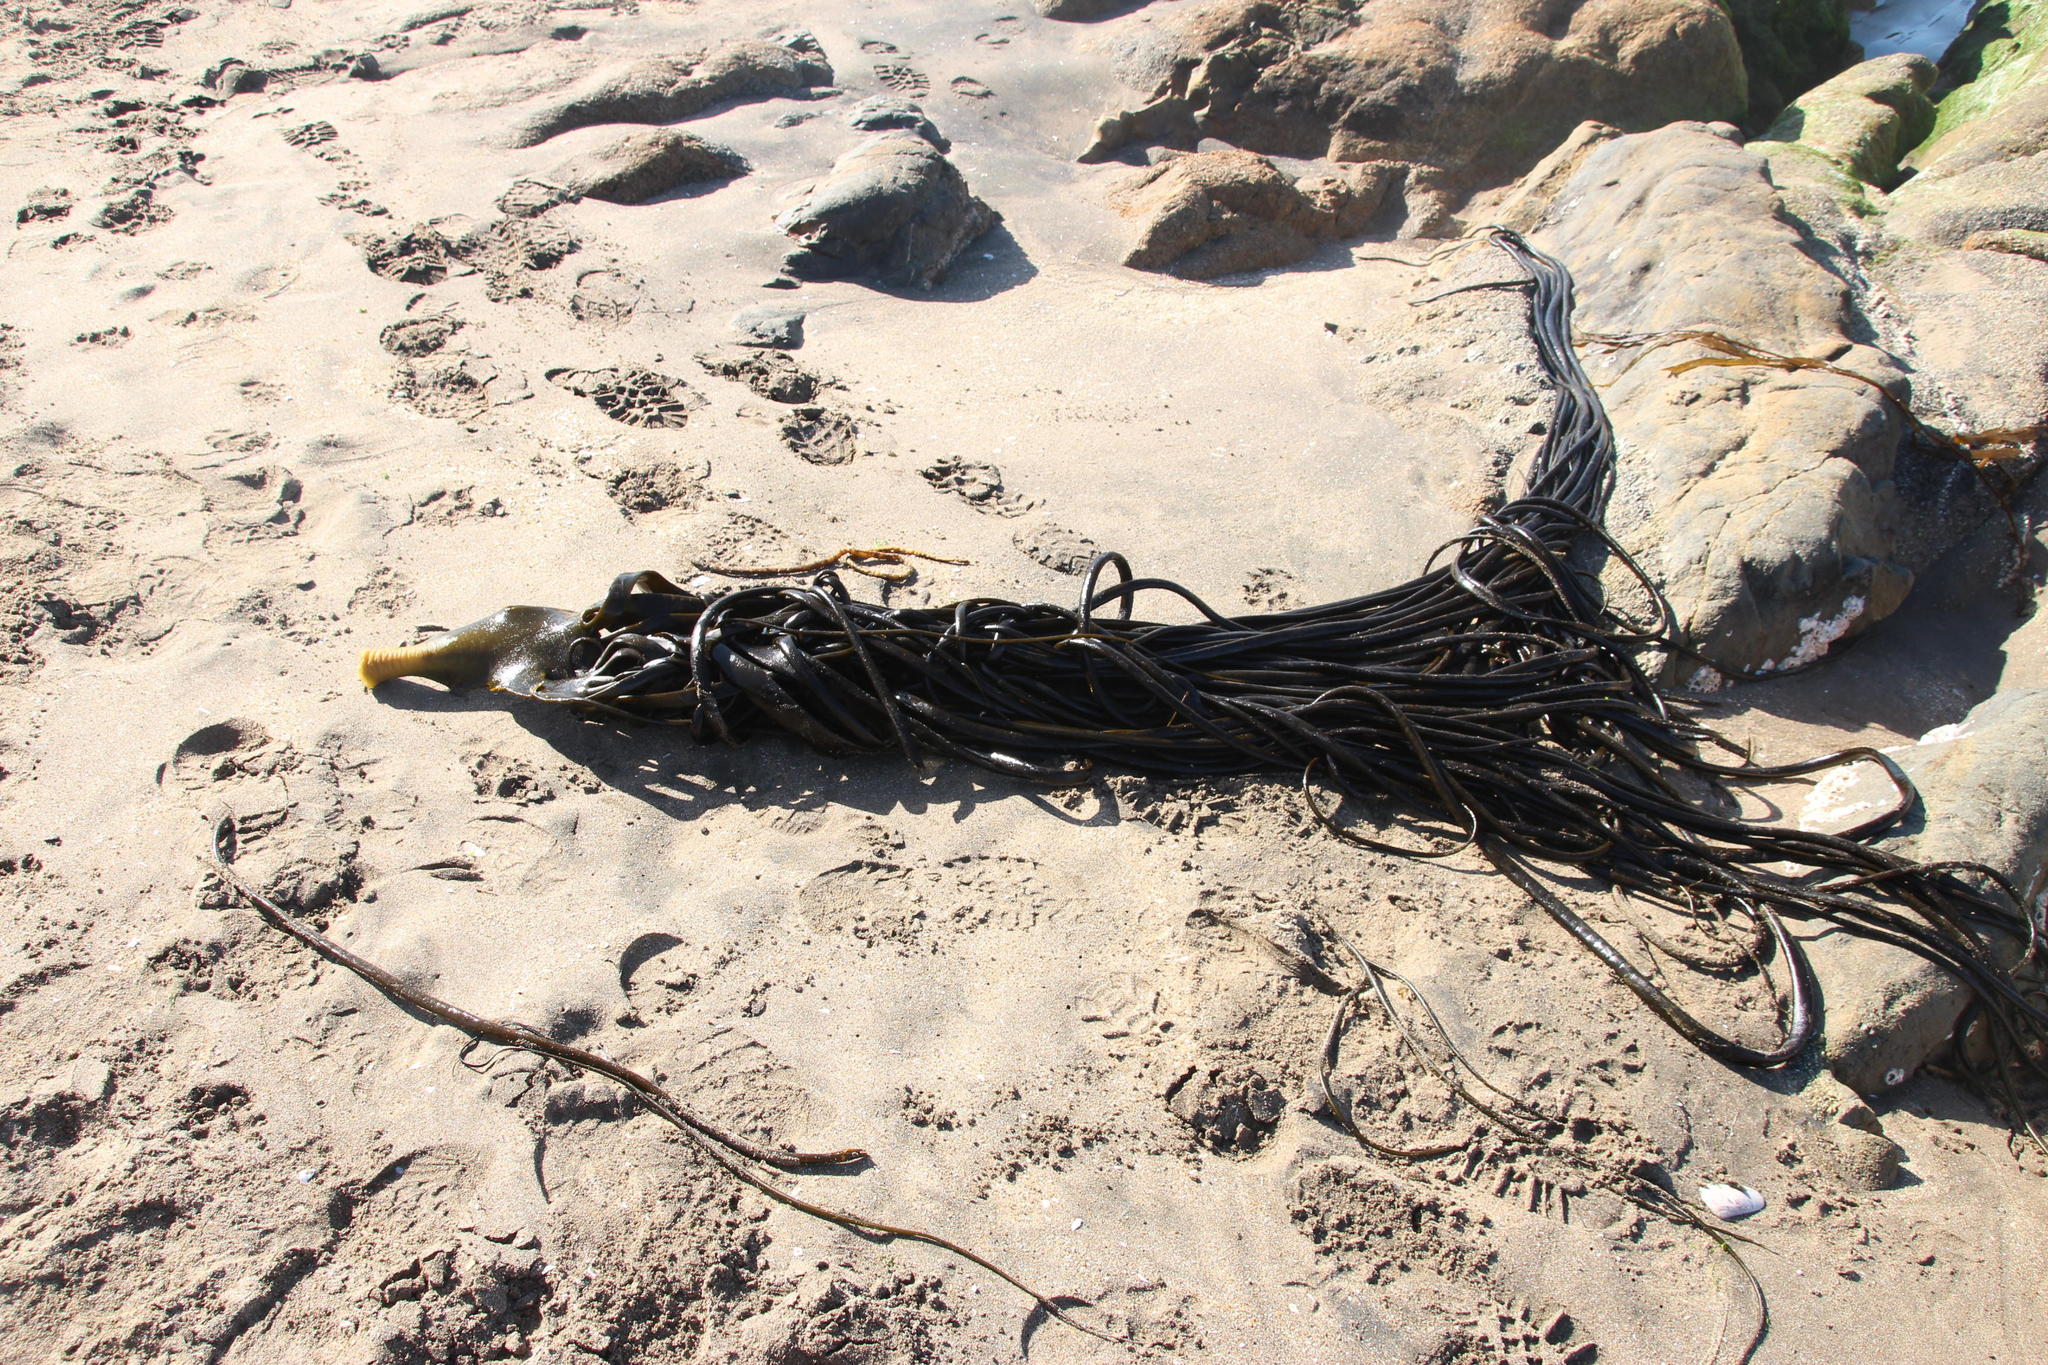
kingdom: Chromista
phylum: Ochrophyta
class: Phaeophyceae
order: Fucales
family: Durvillaeaceae
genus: Durvillaea
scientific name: Durvillaea
